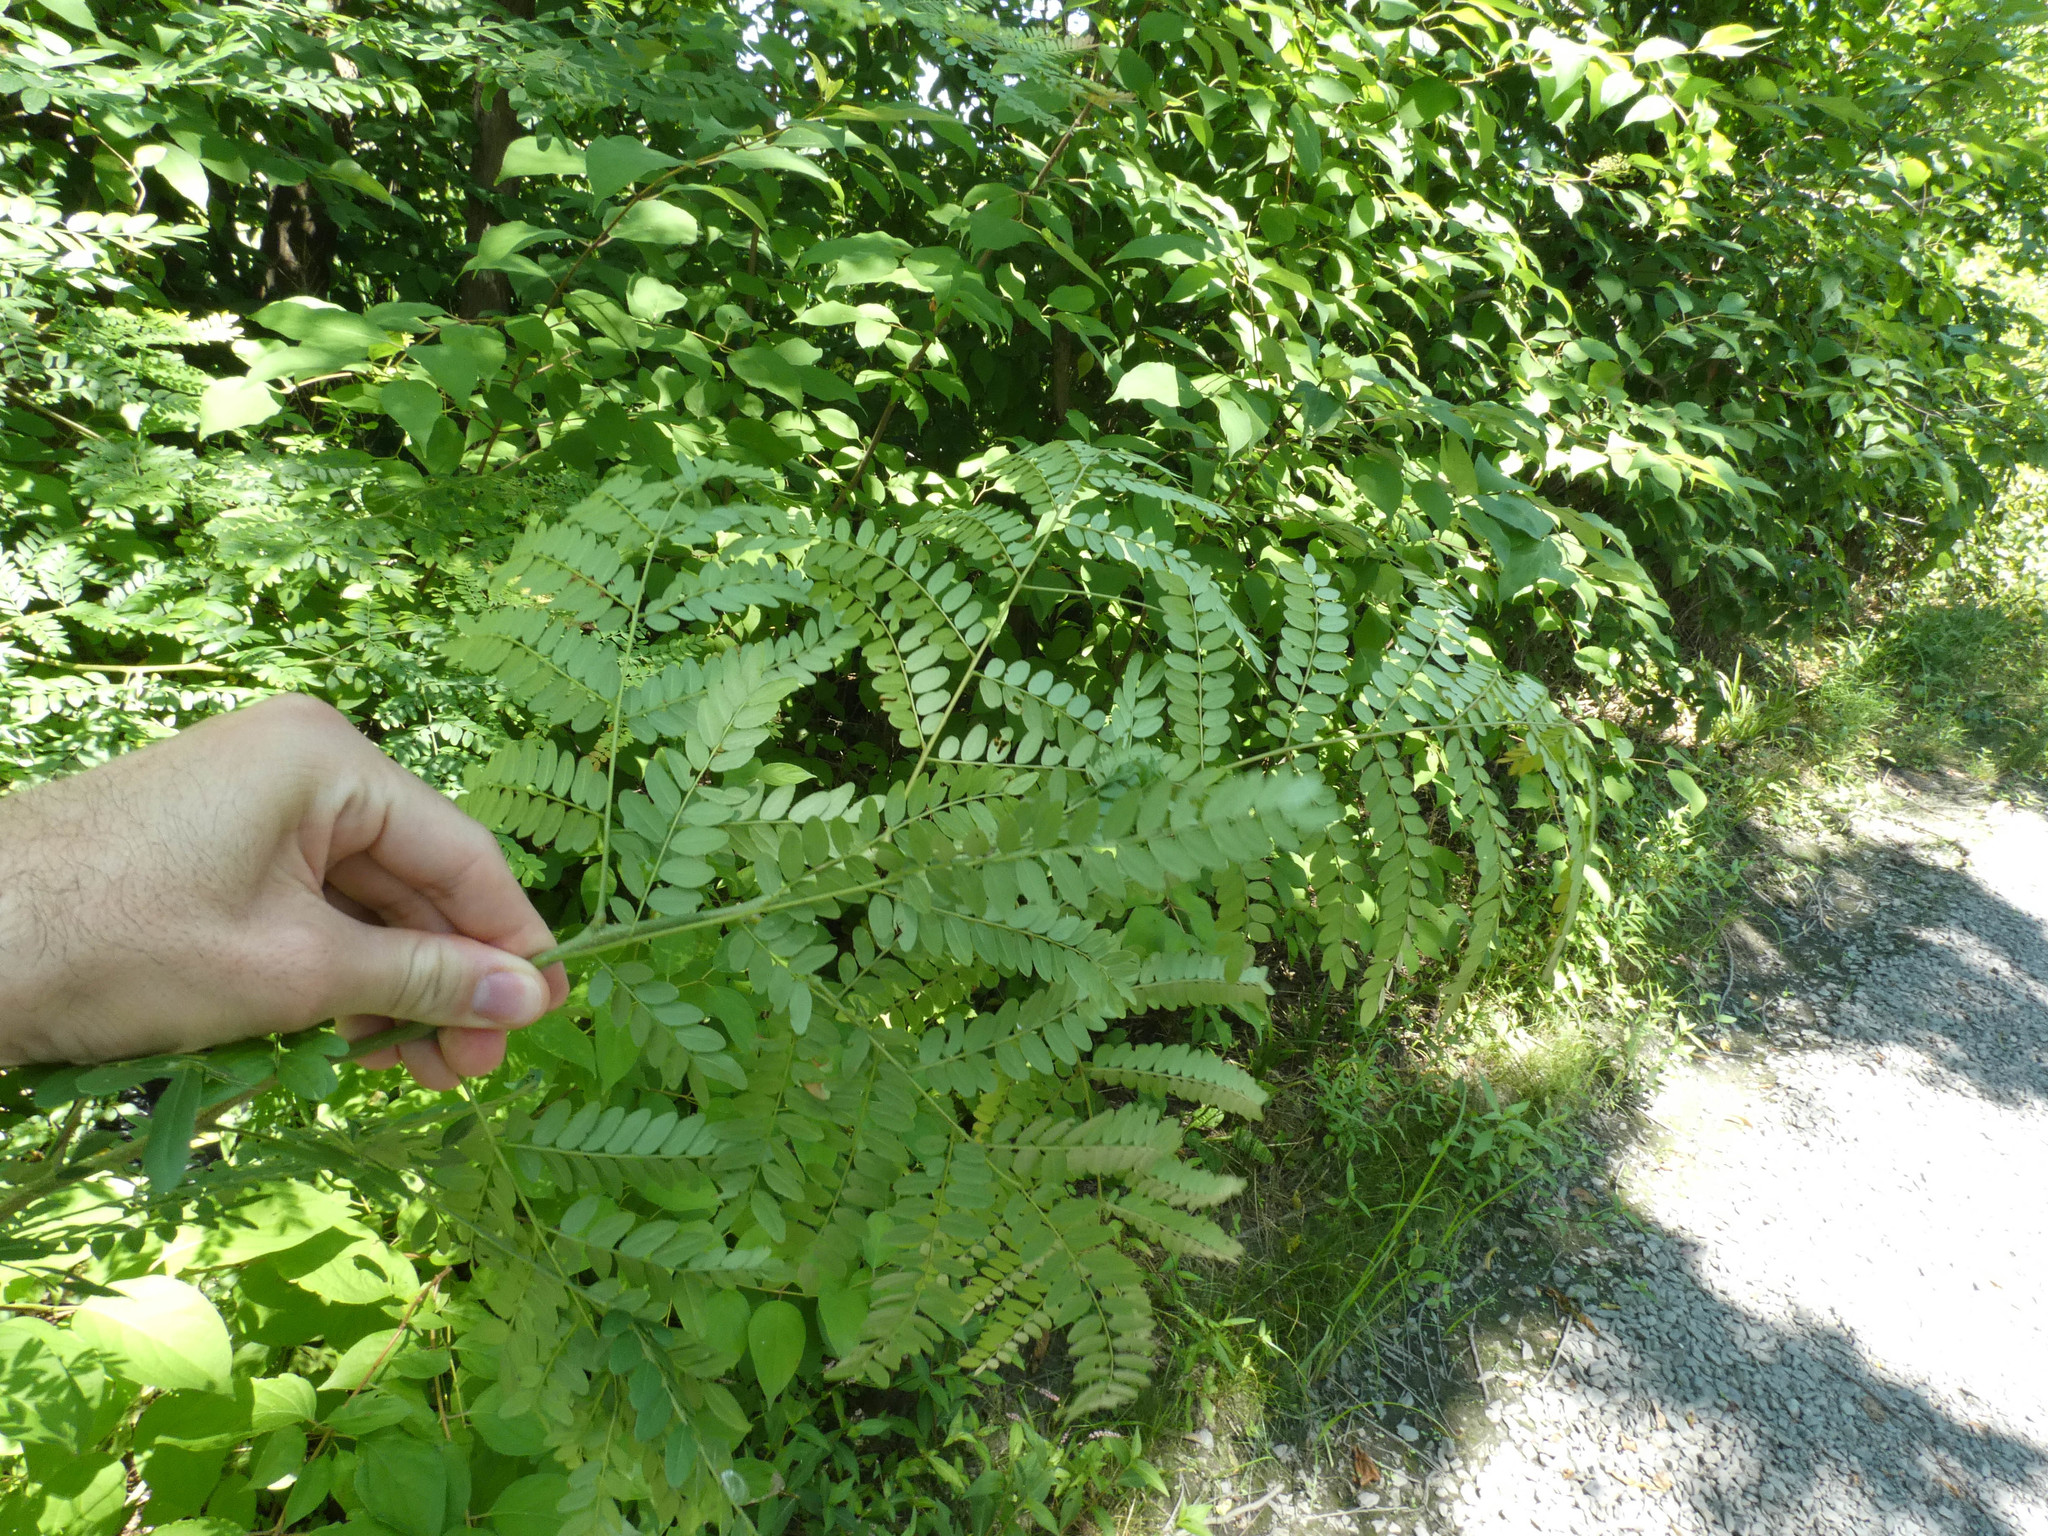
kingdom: Plantae
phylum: Tracheophyta
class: Magnoliopsida
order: Fabales
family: Fabaceae
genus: Gleditsia
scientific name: Gleditsia triacanthos
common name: Common honeylocust
